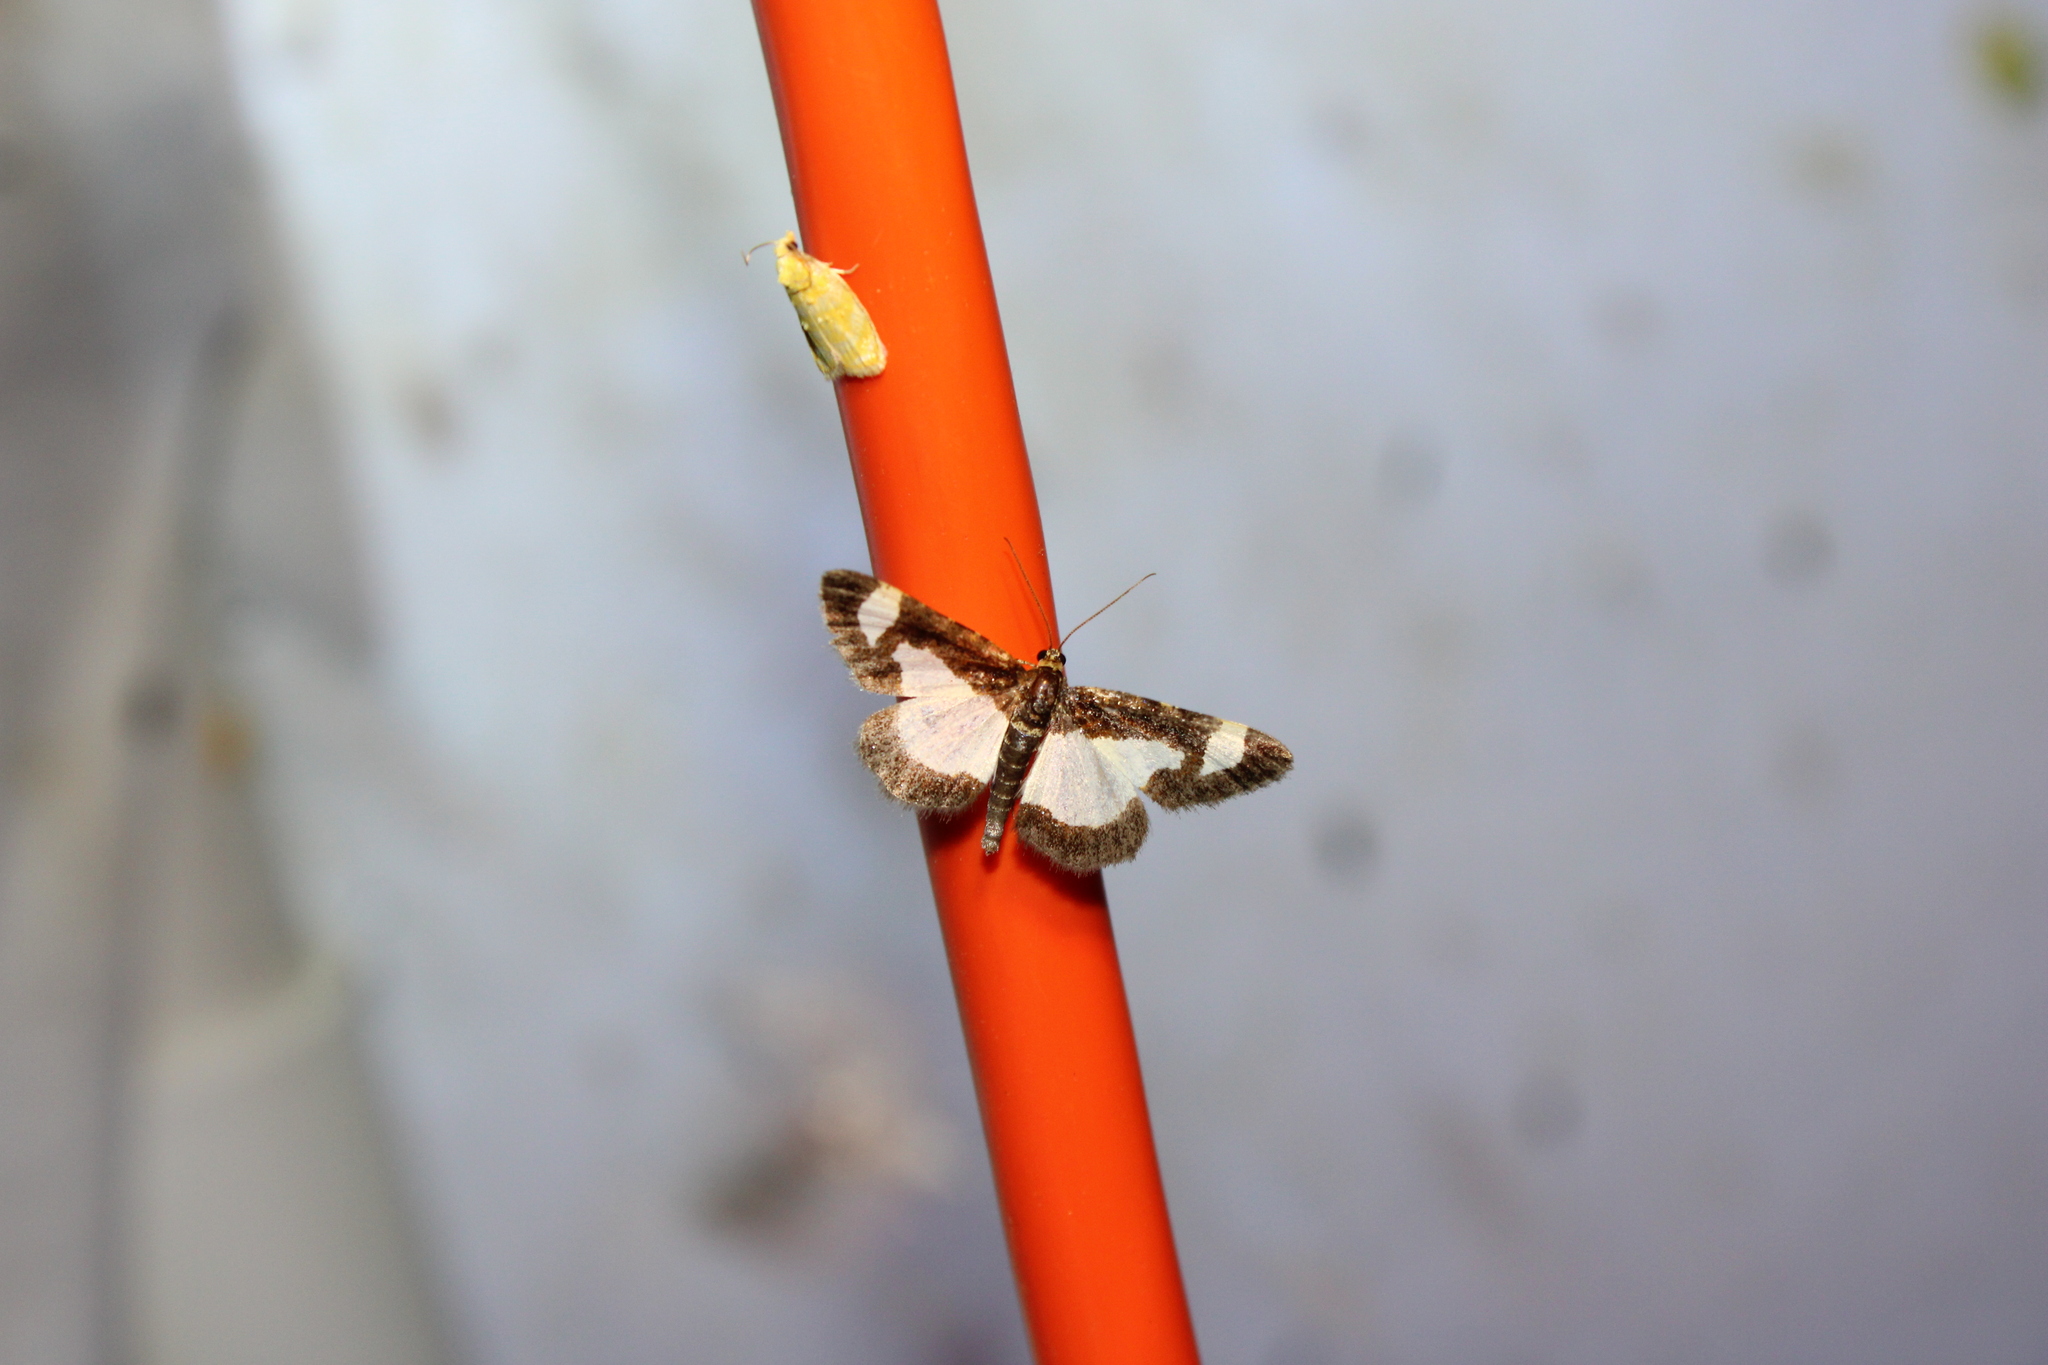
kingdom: Animalia
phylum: Arthropoda
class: Insecta
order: Lepidoptera
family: Geometridae
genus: Heliomata
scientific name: Heliomata cycladata
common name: Common spring moth
